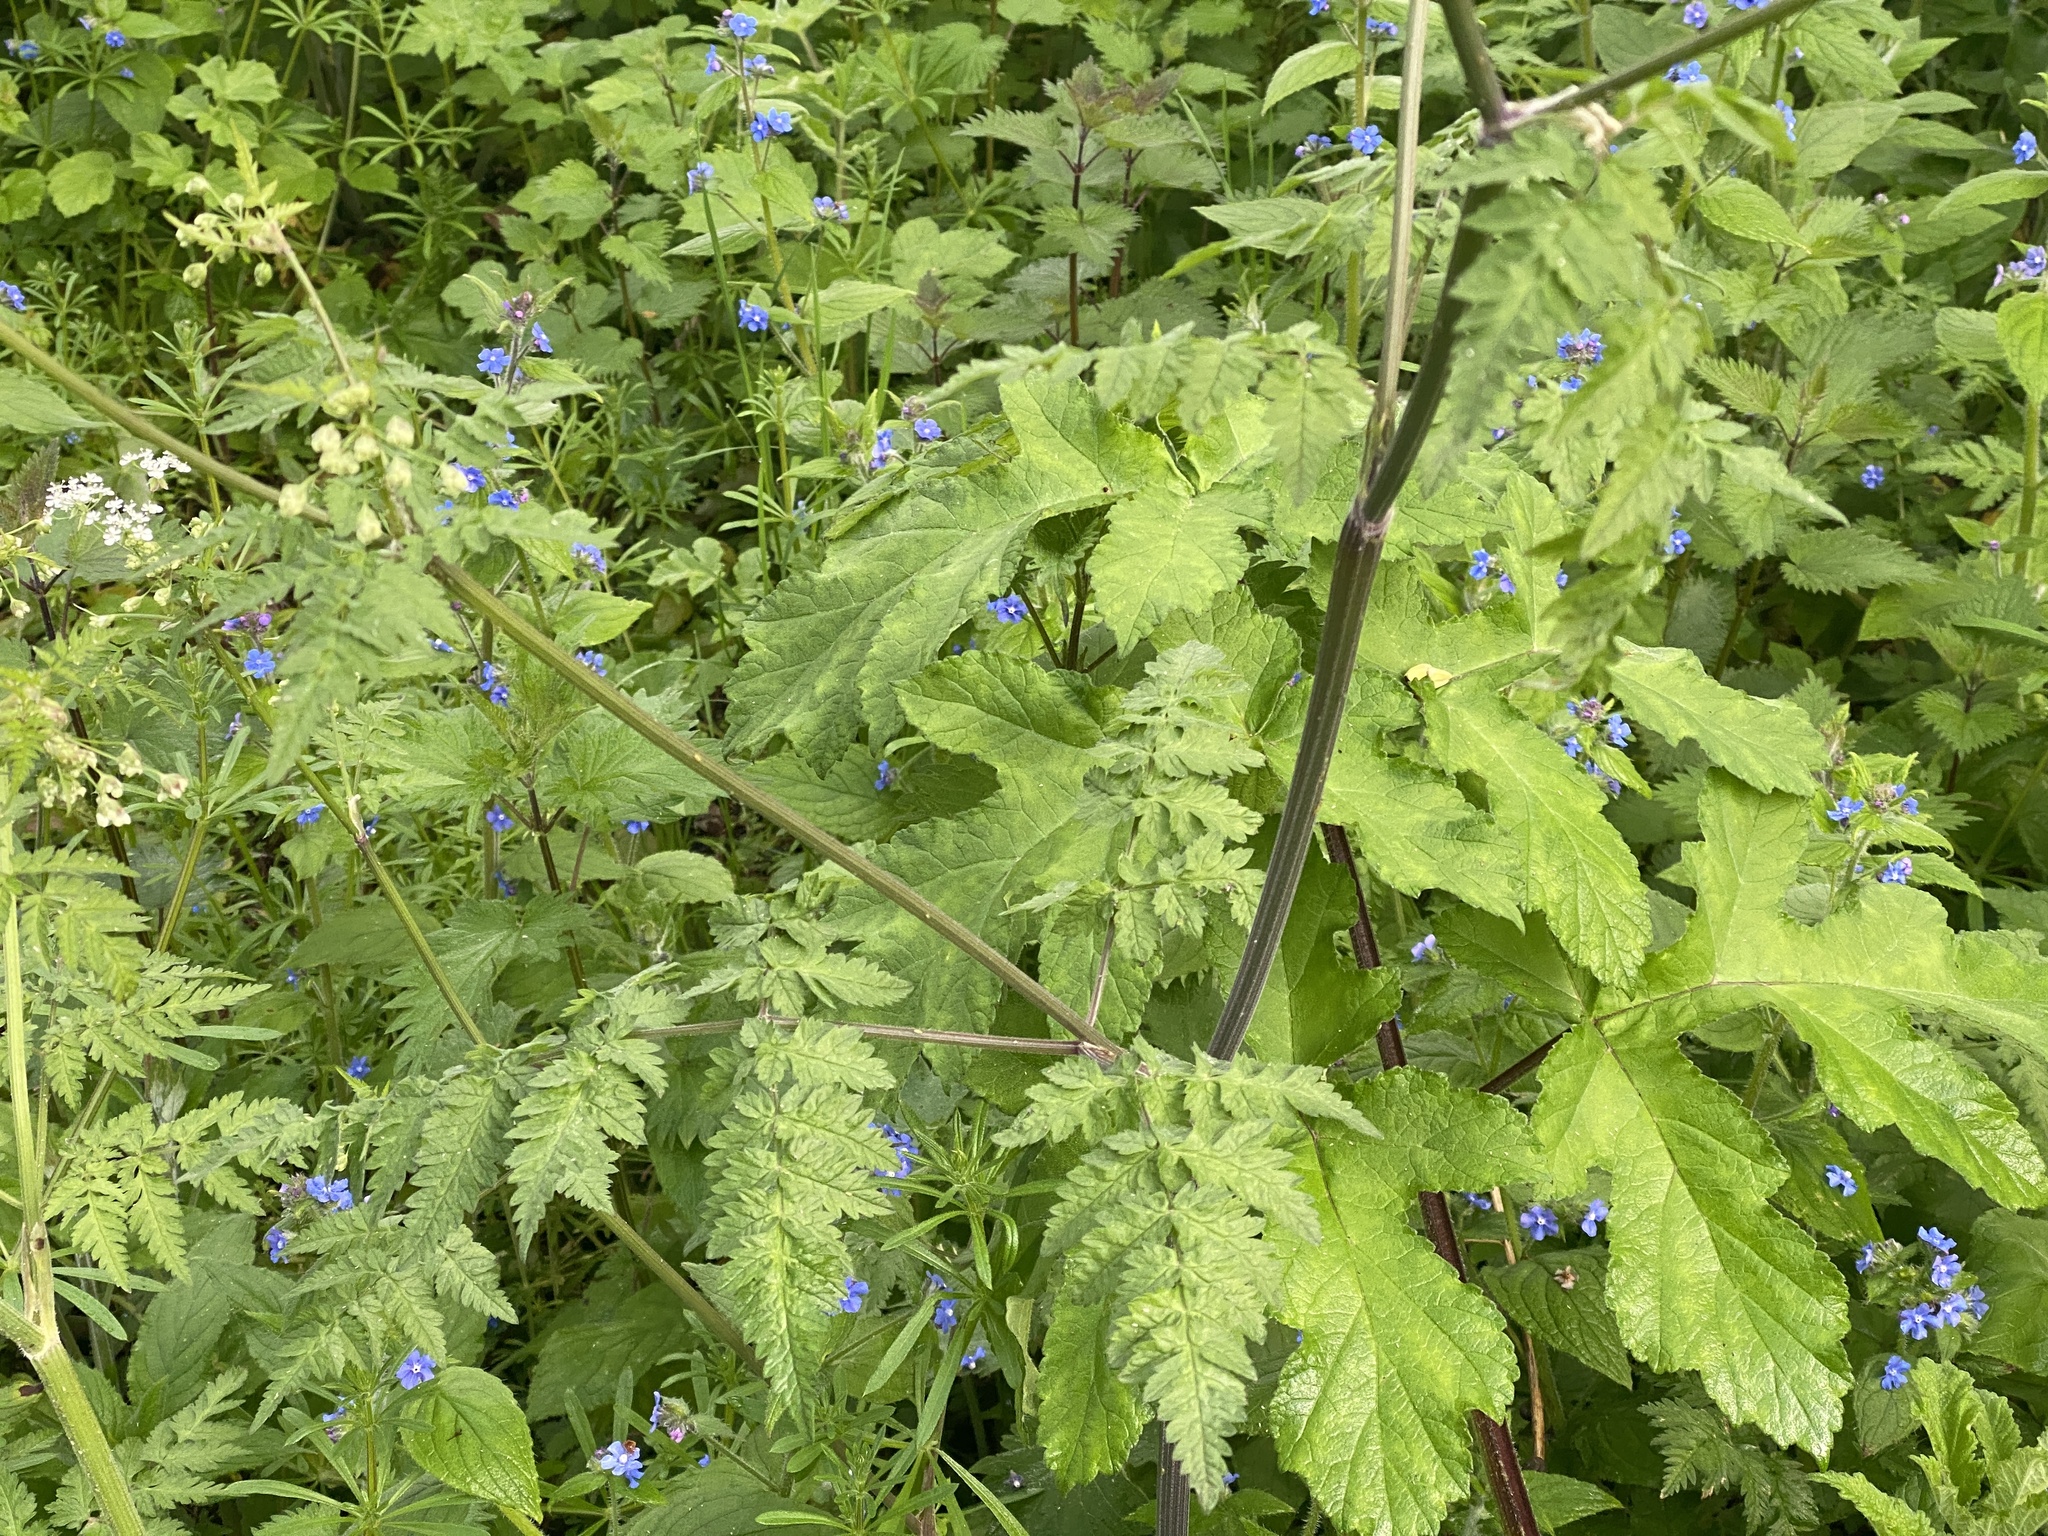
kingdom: Plantae
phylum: Tracheophyta
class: Magnoliopsida
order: Apiales
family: Apiaceae
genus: Anthriscus
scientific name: Anthriscus sylvestris
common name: Cow parsley
